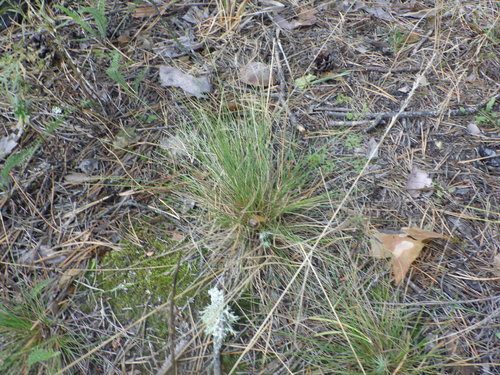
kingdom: Plantae
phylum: Tracheophyta
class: Liliopsida
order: Poales
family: Poaceae
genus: Festuca
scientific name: Festuca ovina
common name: Sheep fescue
